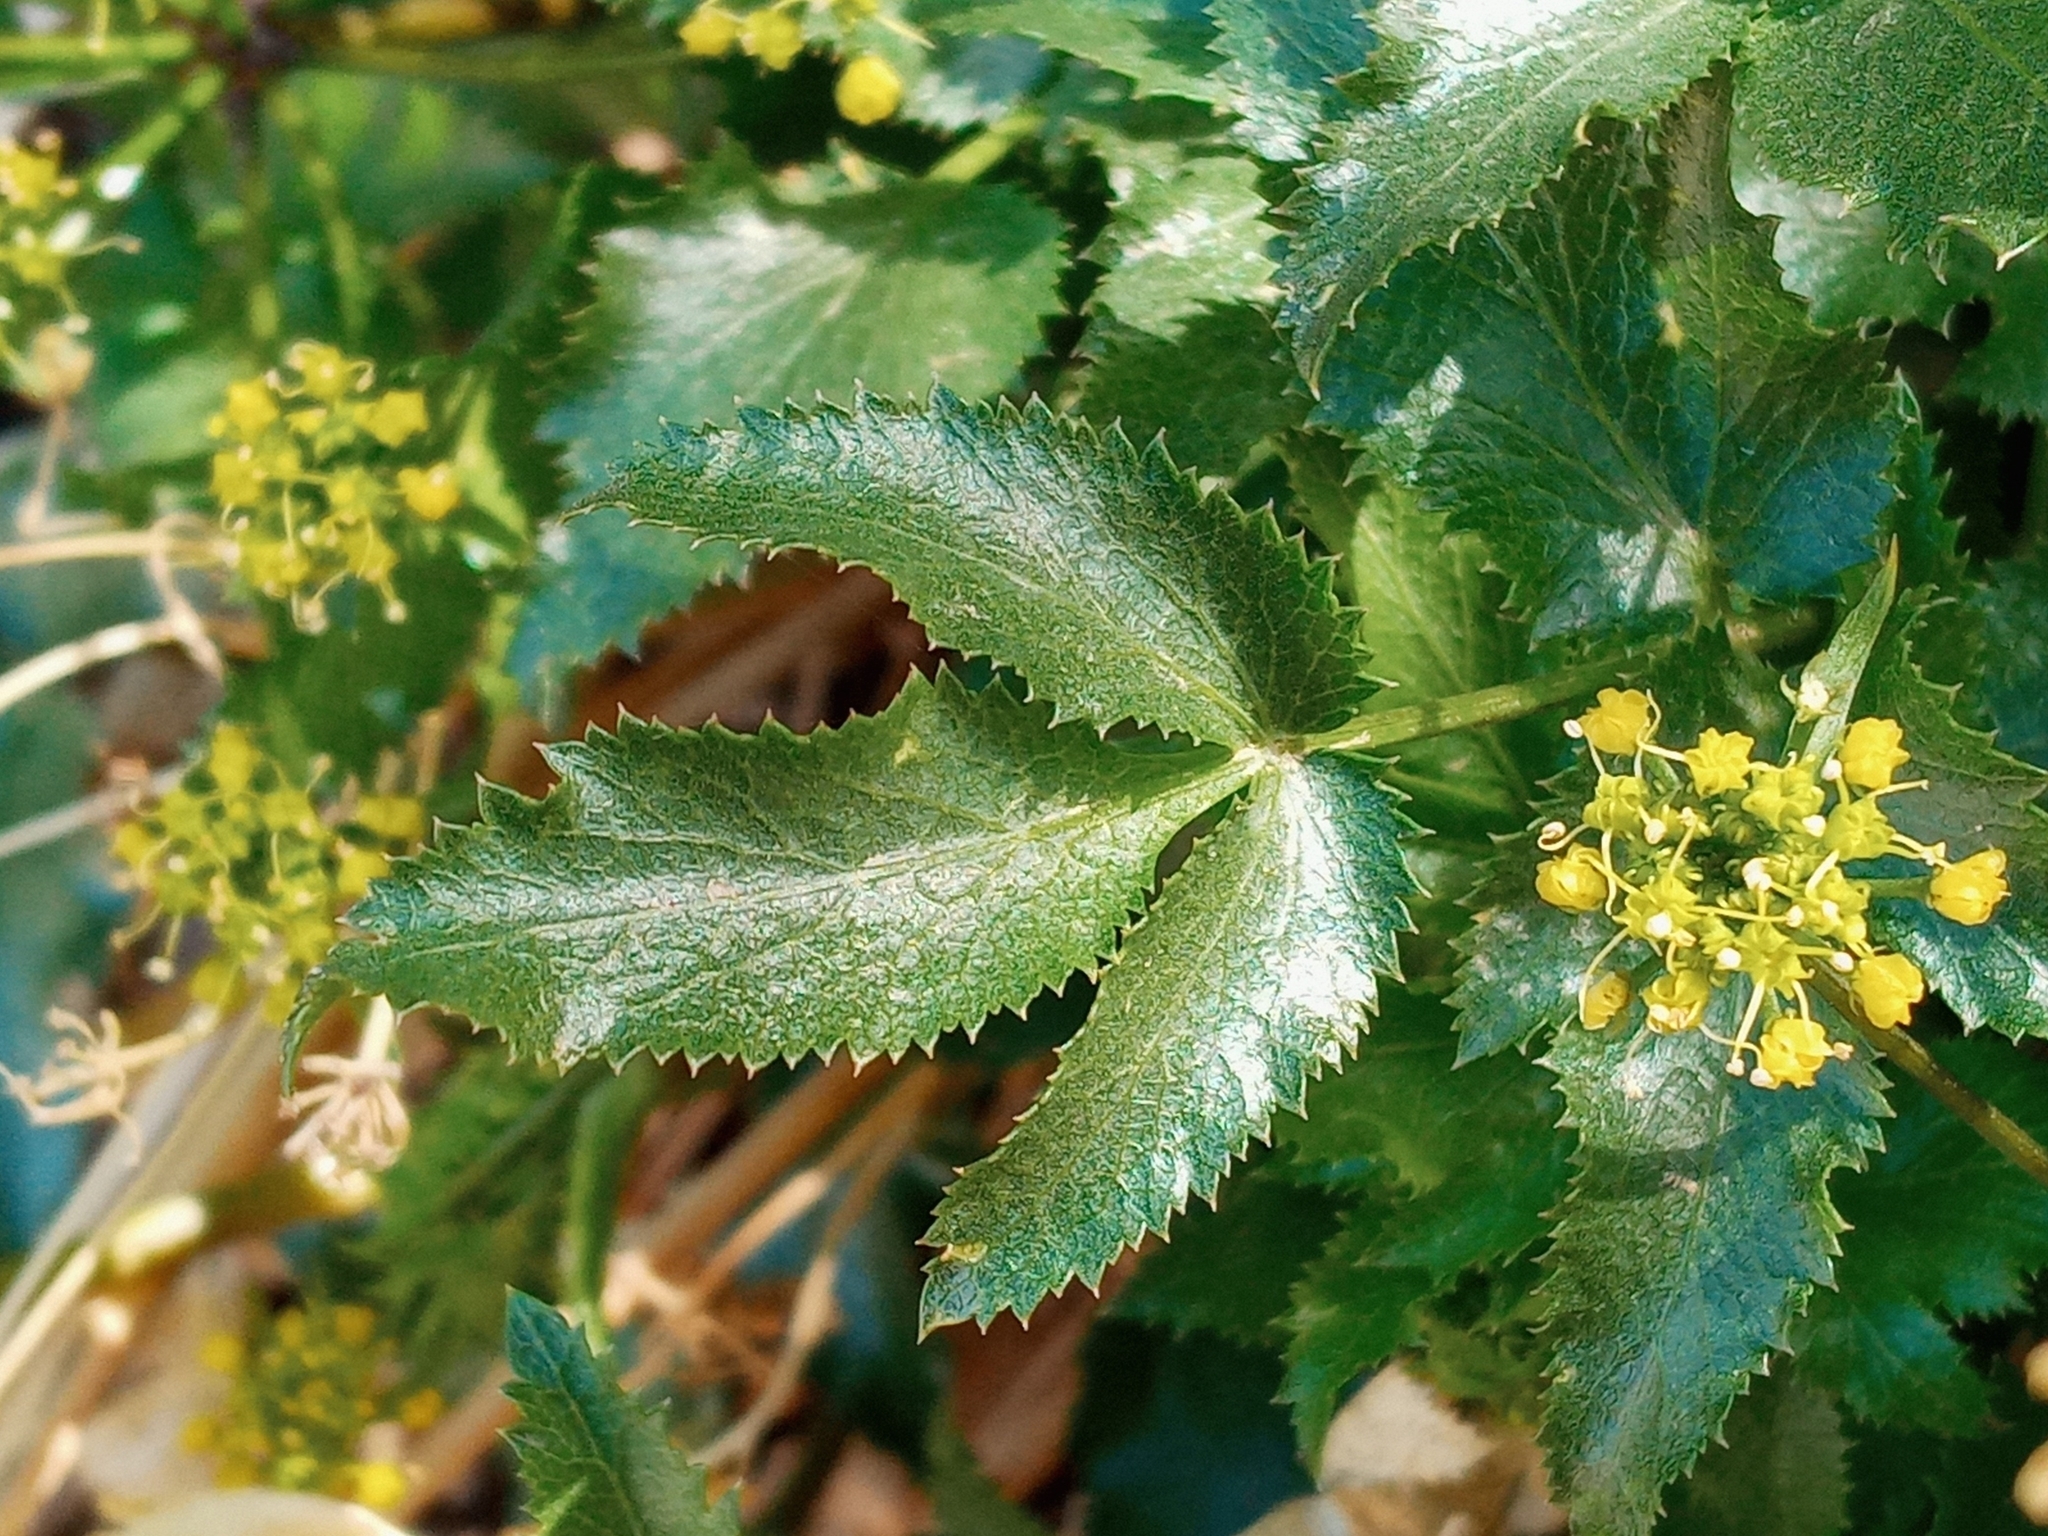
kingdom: Plantae
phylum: Tracheophyta
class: Magnoliopsida
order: Apiales
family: Apiaceae
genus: Tauschia
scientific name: Tauschia arguta
